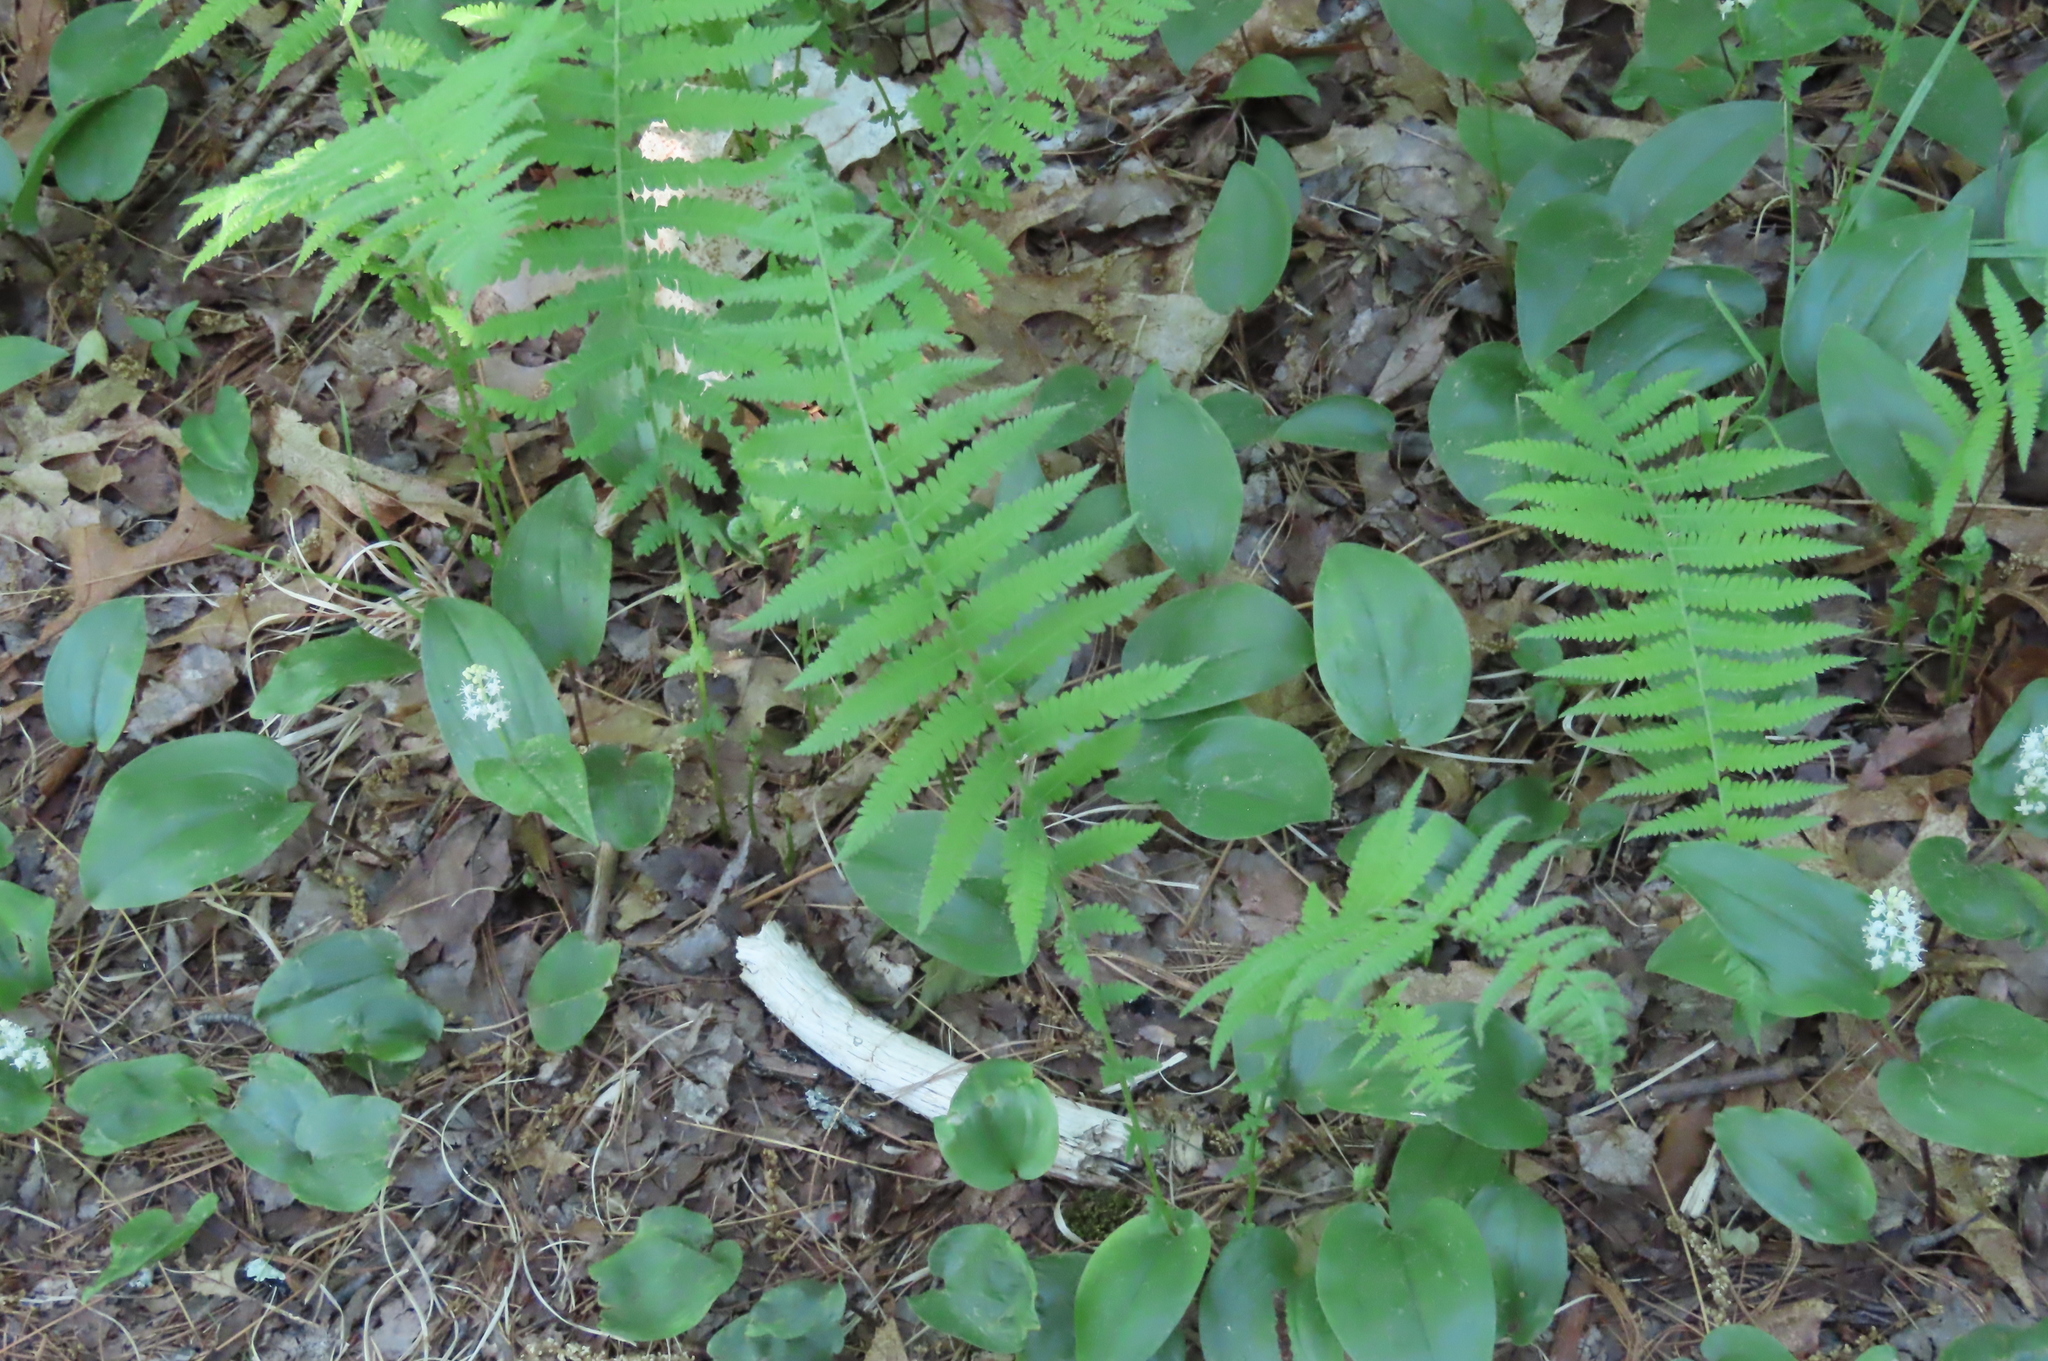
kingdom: Plantae
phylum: Tracheophyta
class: Polypodiopsida
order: Polypodiales
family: Thelypteridaceae
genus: Amauropelta
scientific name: Amauropelta noveboracensis
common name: New york fern
